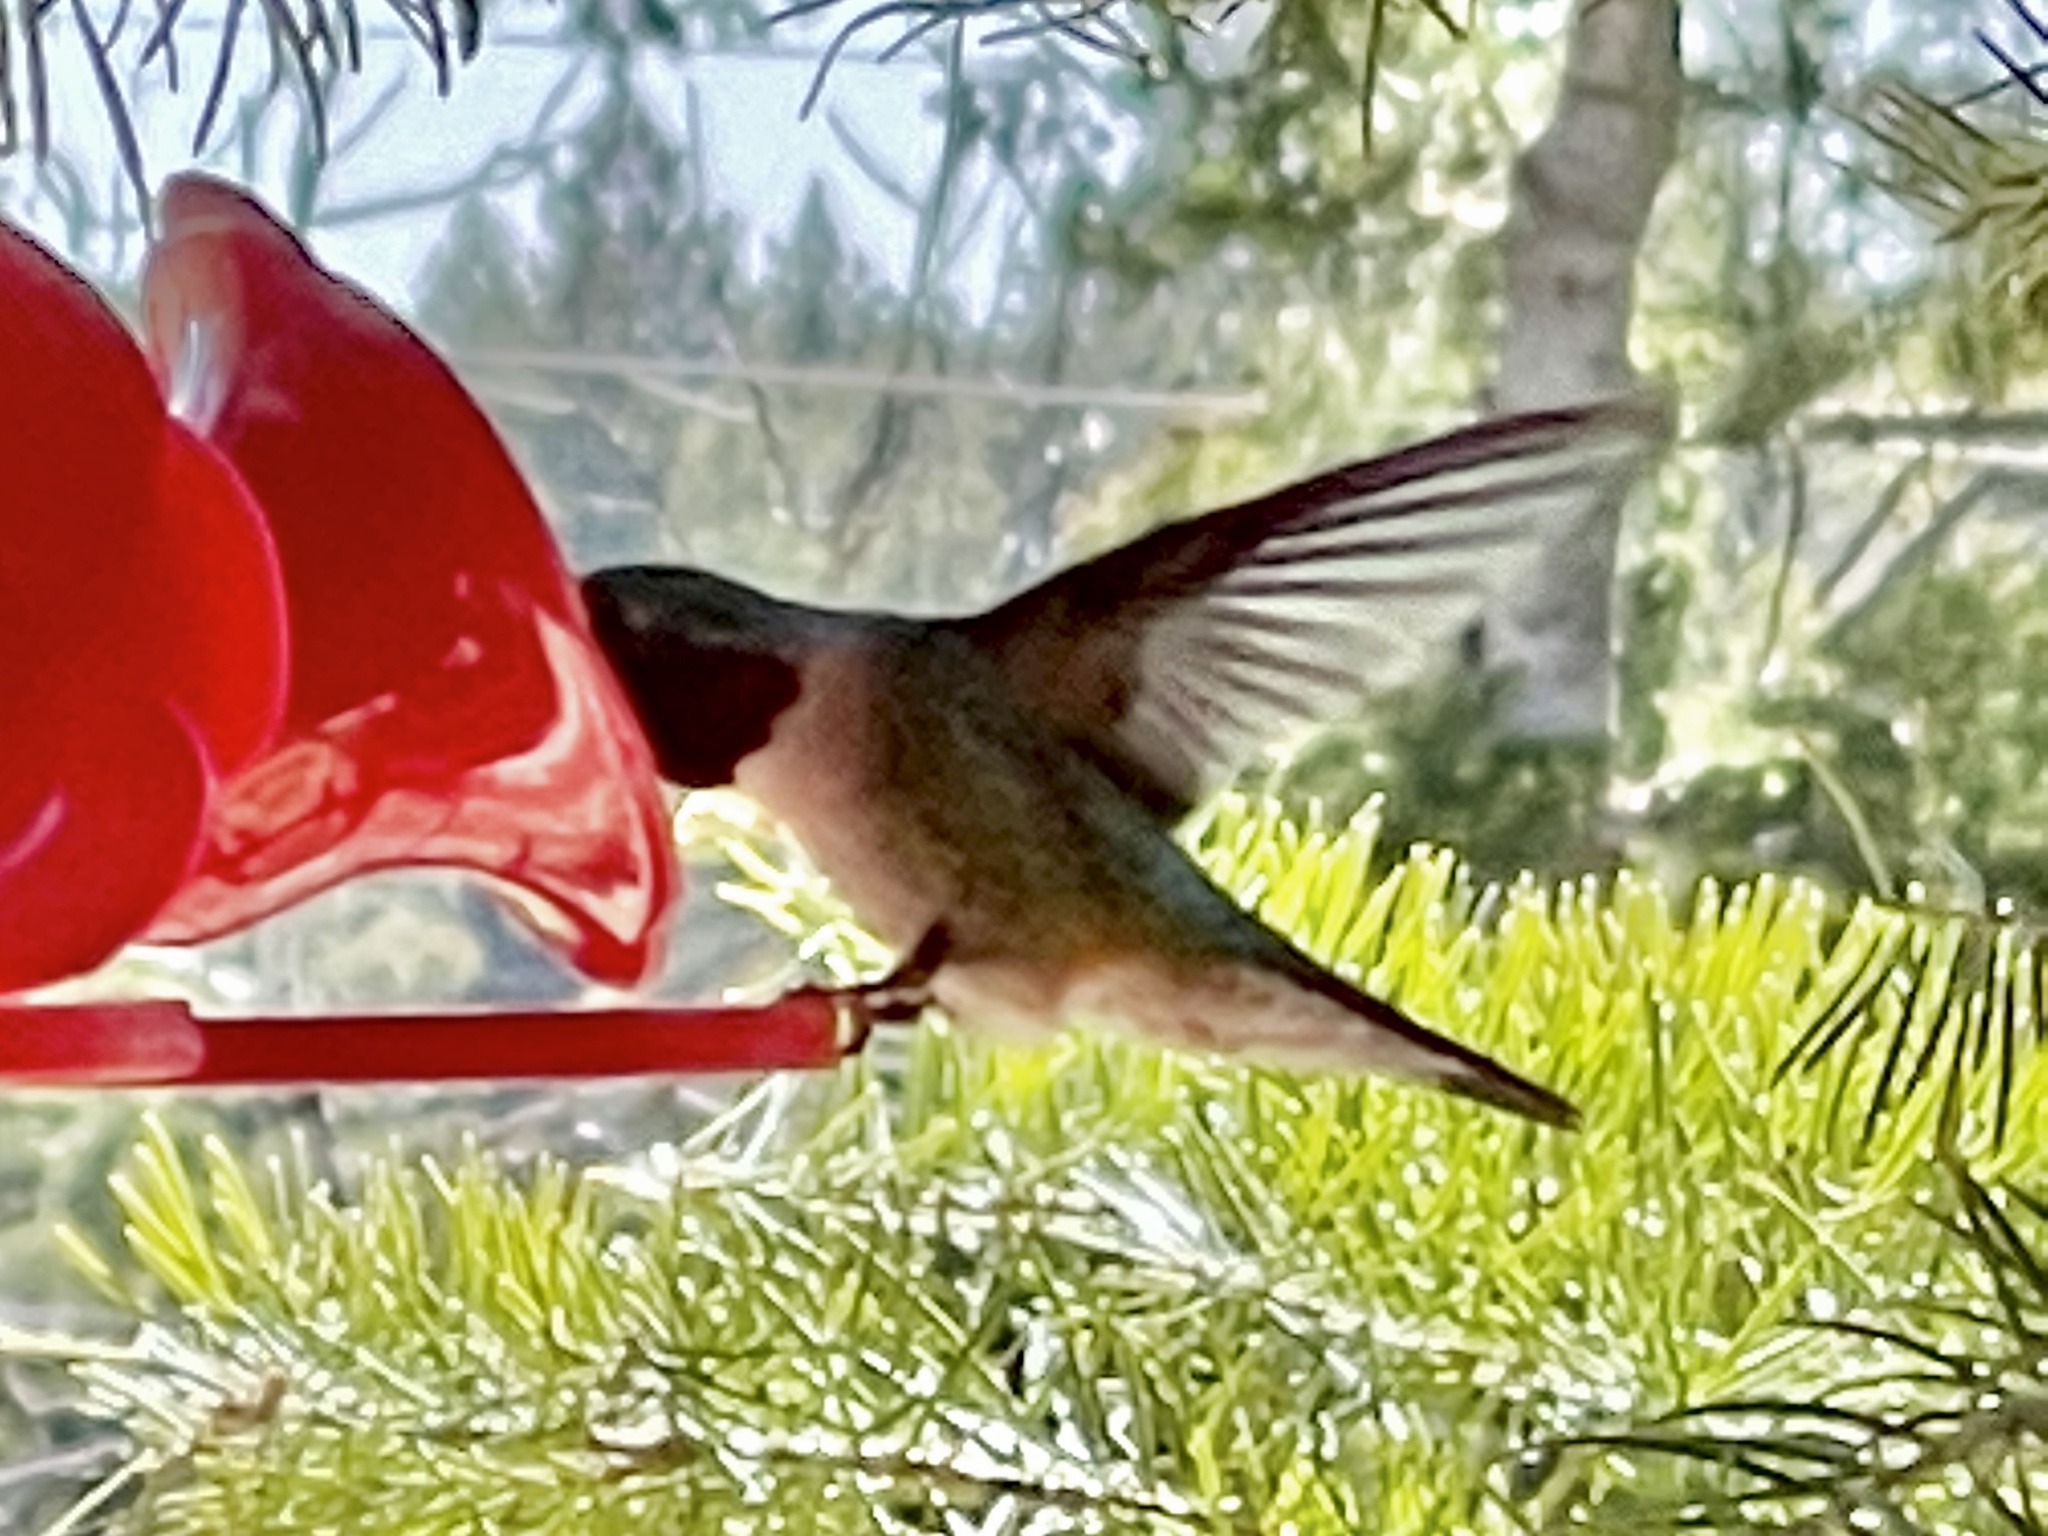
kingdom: Animalia
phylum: Chordata
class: Aves
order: Apodiformes
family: Trochilidae
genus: Selasphorus
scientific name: Selasphorus platycercus
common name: Broad-tailed hummingbird
